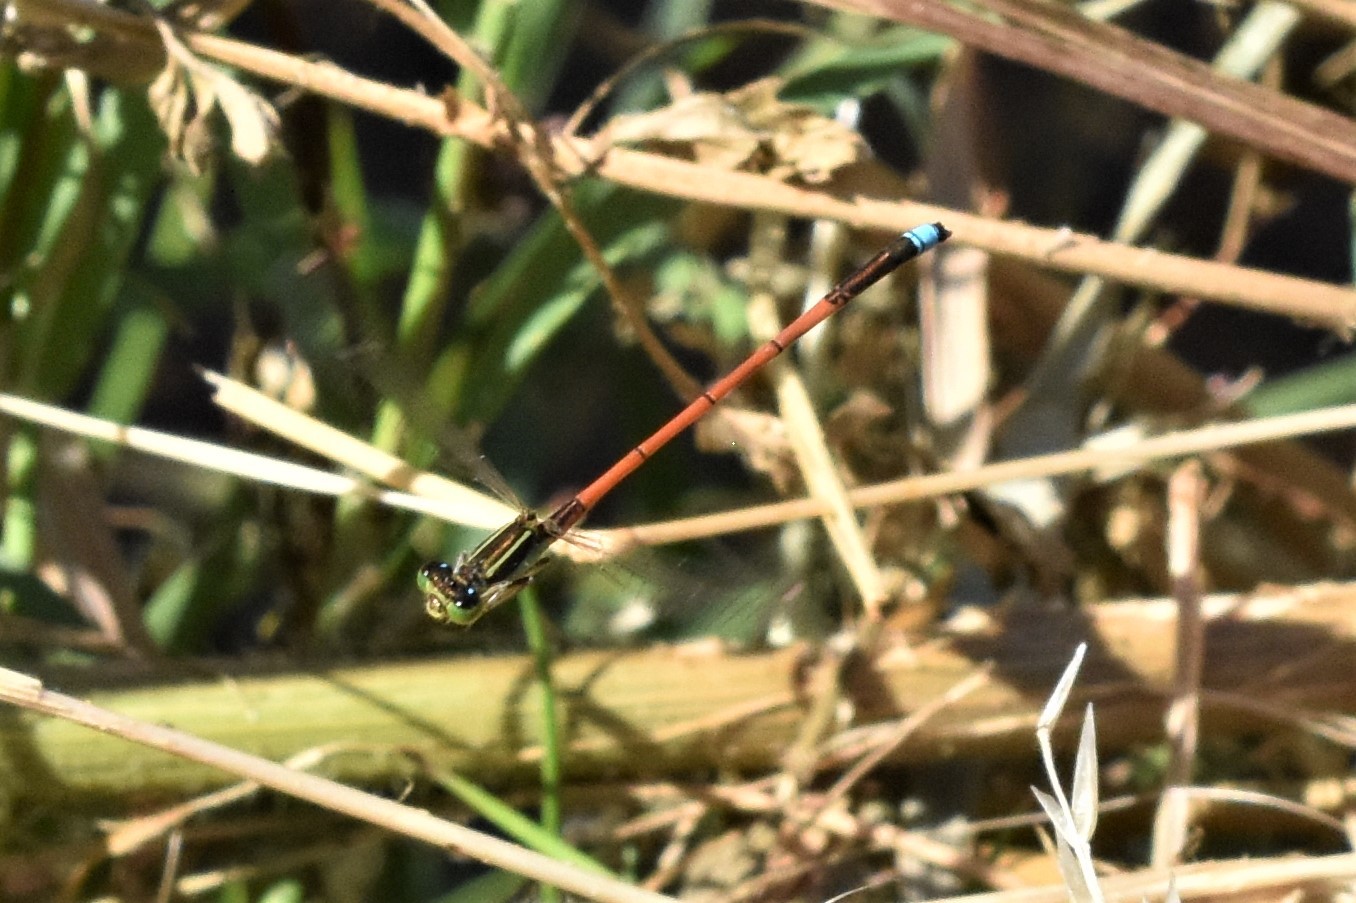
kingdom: Animalia
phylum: Arthropoda
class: Insecta
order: Odonata
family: Coenagrionidae
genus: Ischnura
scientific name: Ischnura aurora
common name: Gossamer damselfly
